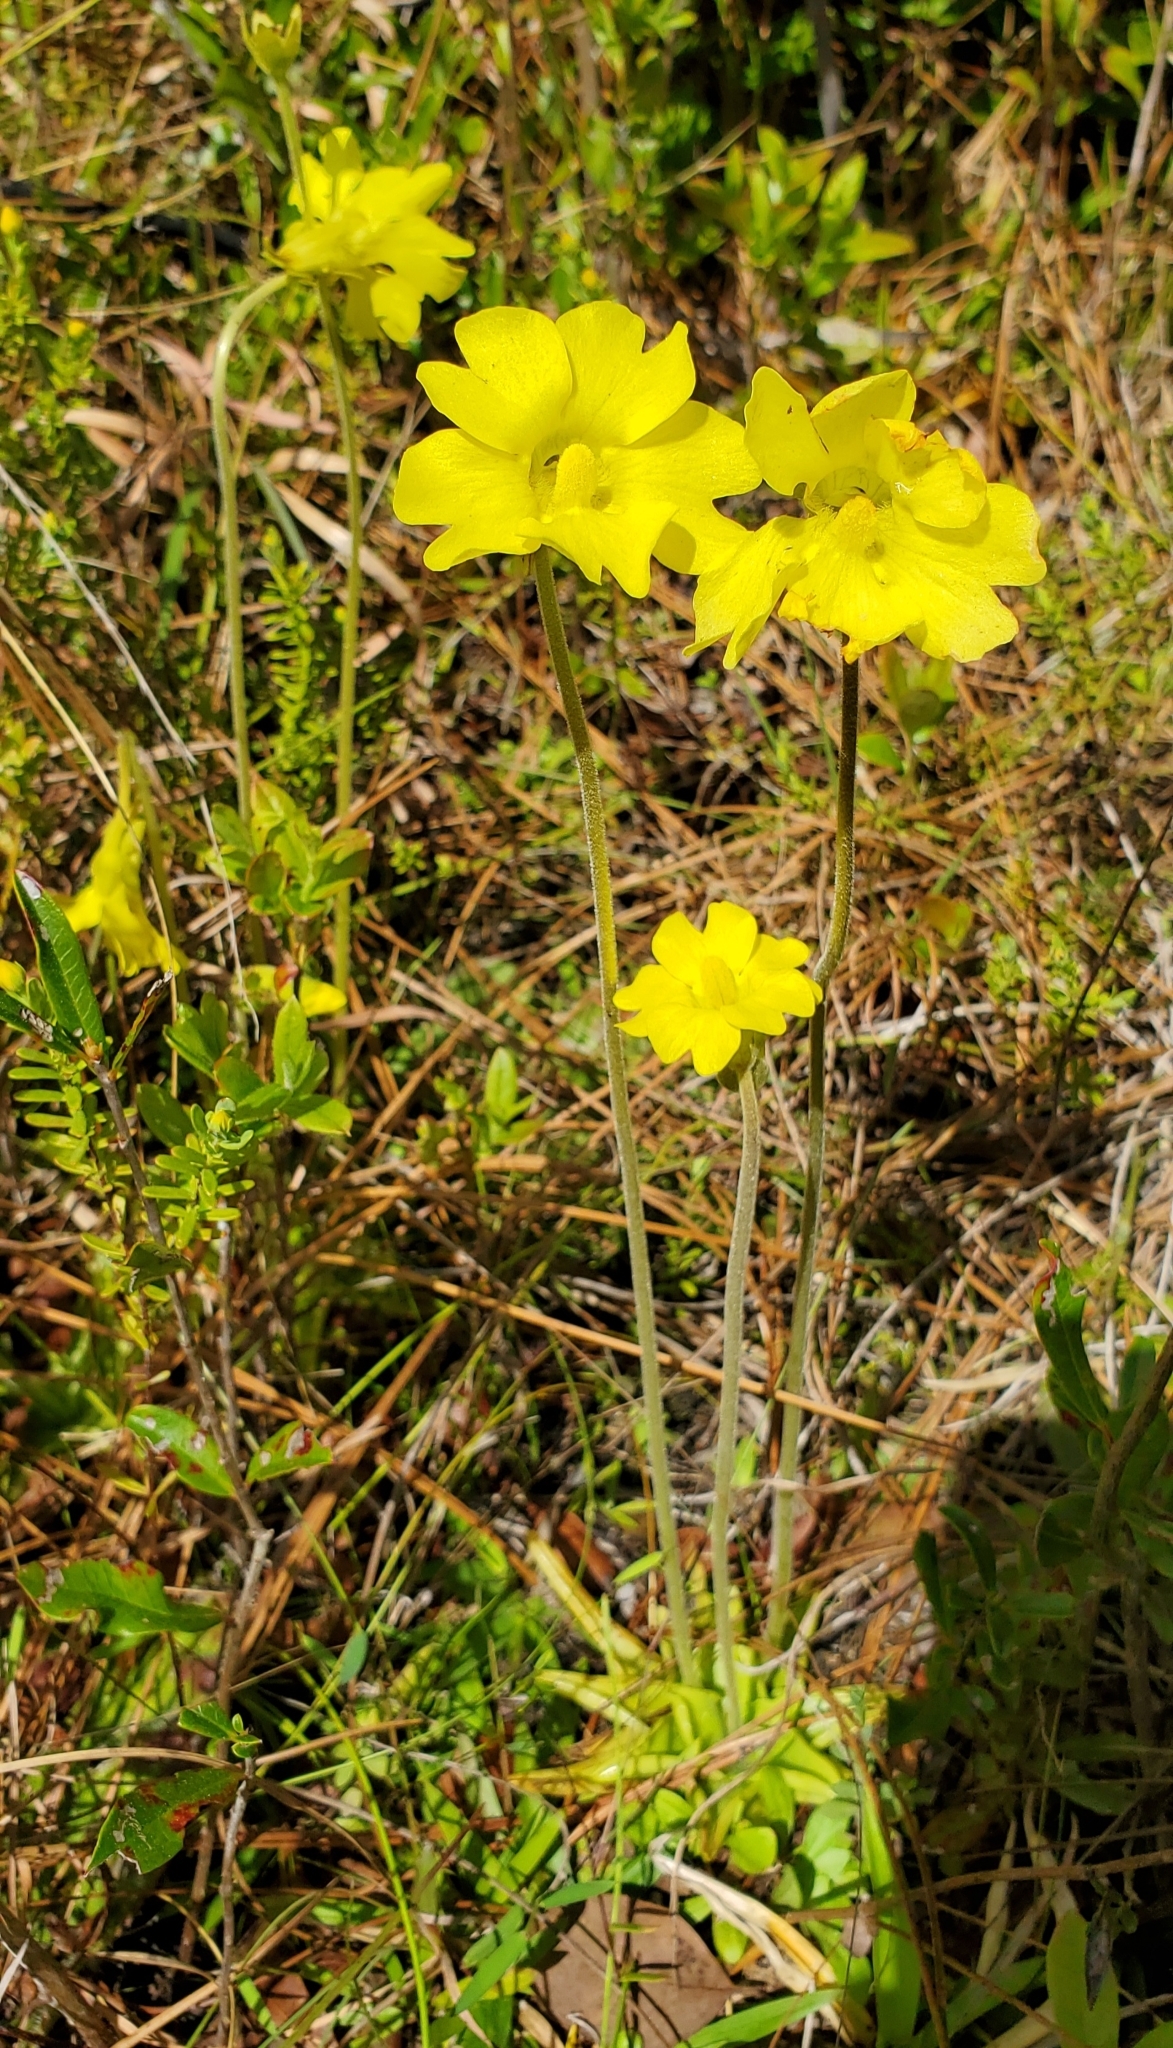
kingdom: Plantae
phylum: Tracheophyta
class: Magnoliopsida
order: Lamiales
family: Lentibulariaceae
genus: Pinguicula
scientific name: Pinguicula lutea
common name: Yellow butterwort
